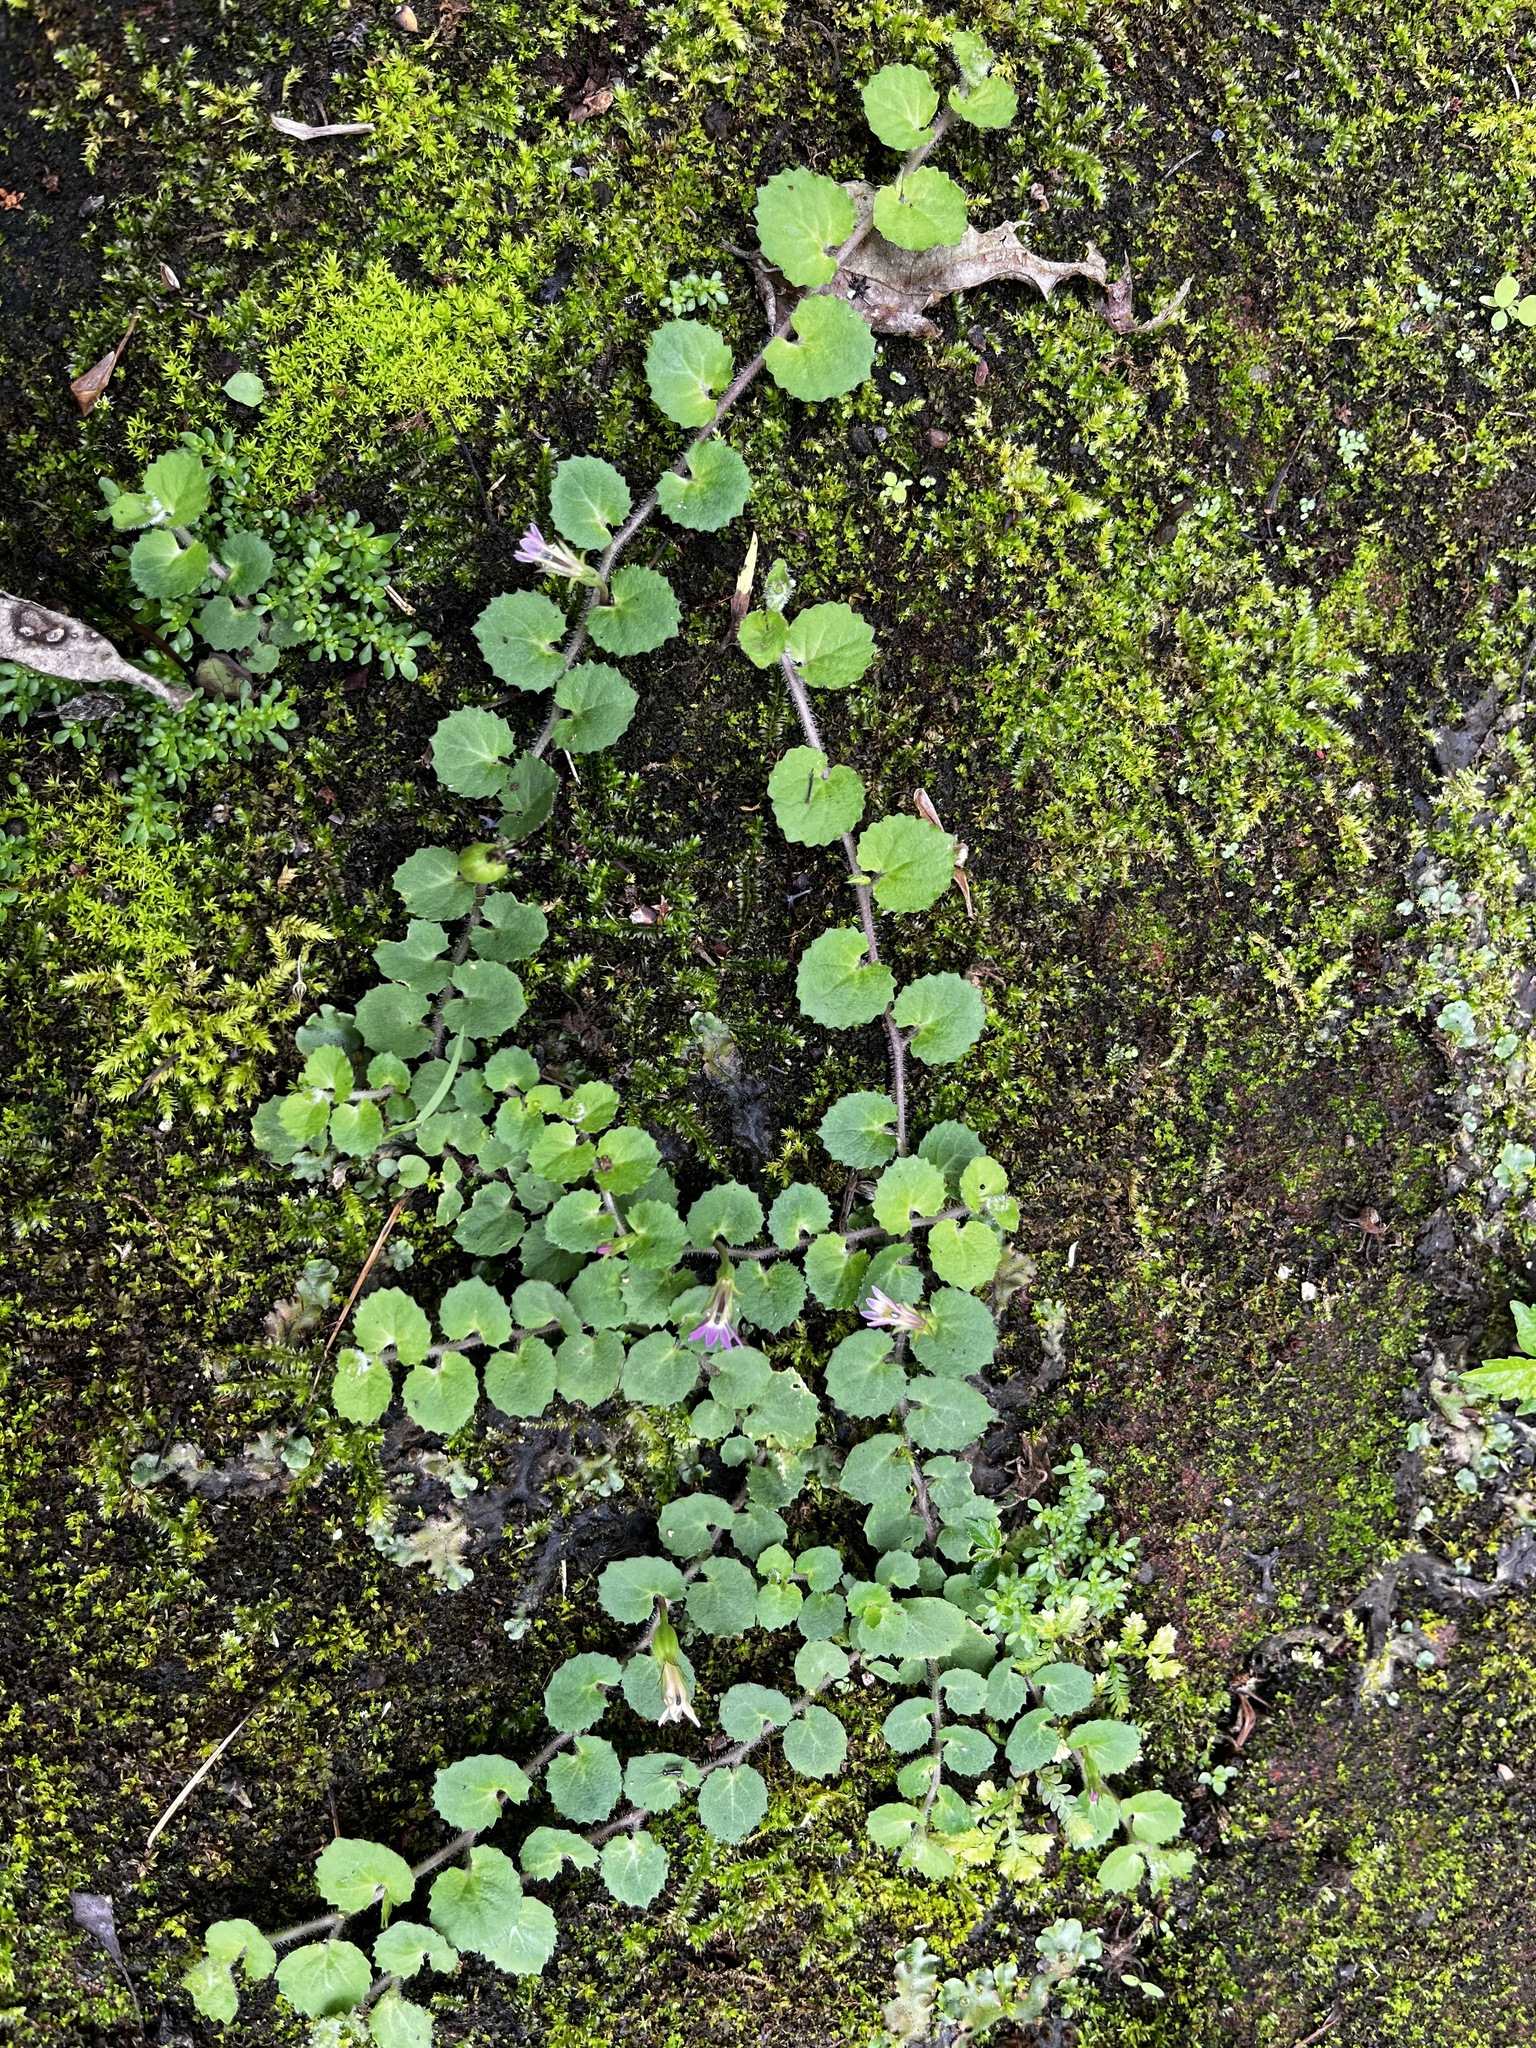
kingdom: Plantae
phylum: Tracheophyta
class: Magnoliopsida
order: Asterales
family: Campanulaceae
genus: Lobelia
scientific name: Lobelia nummularia
